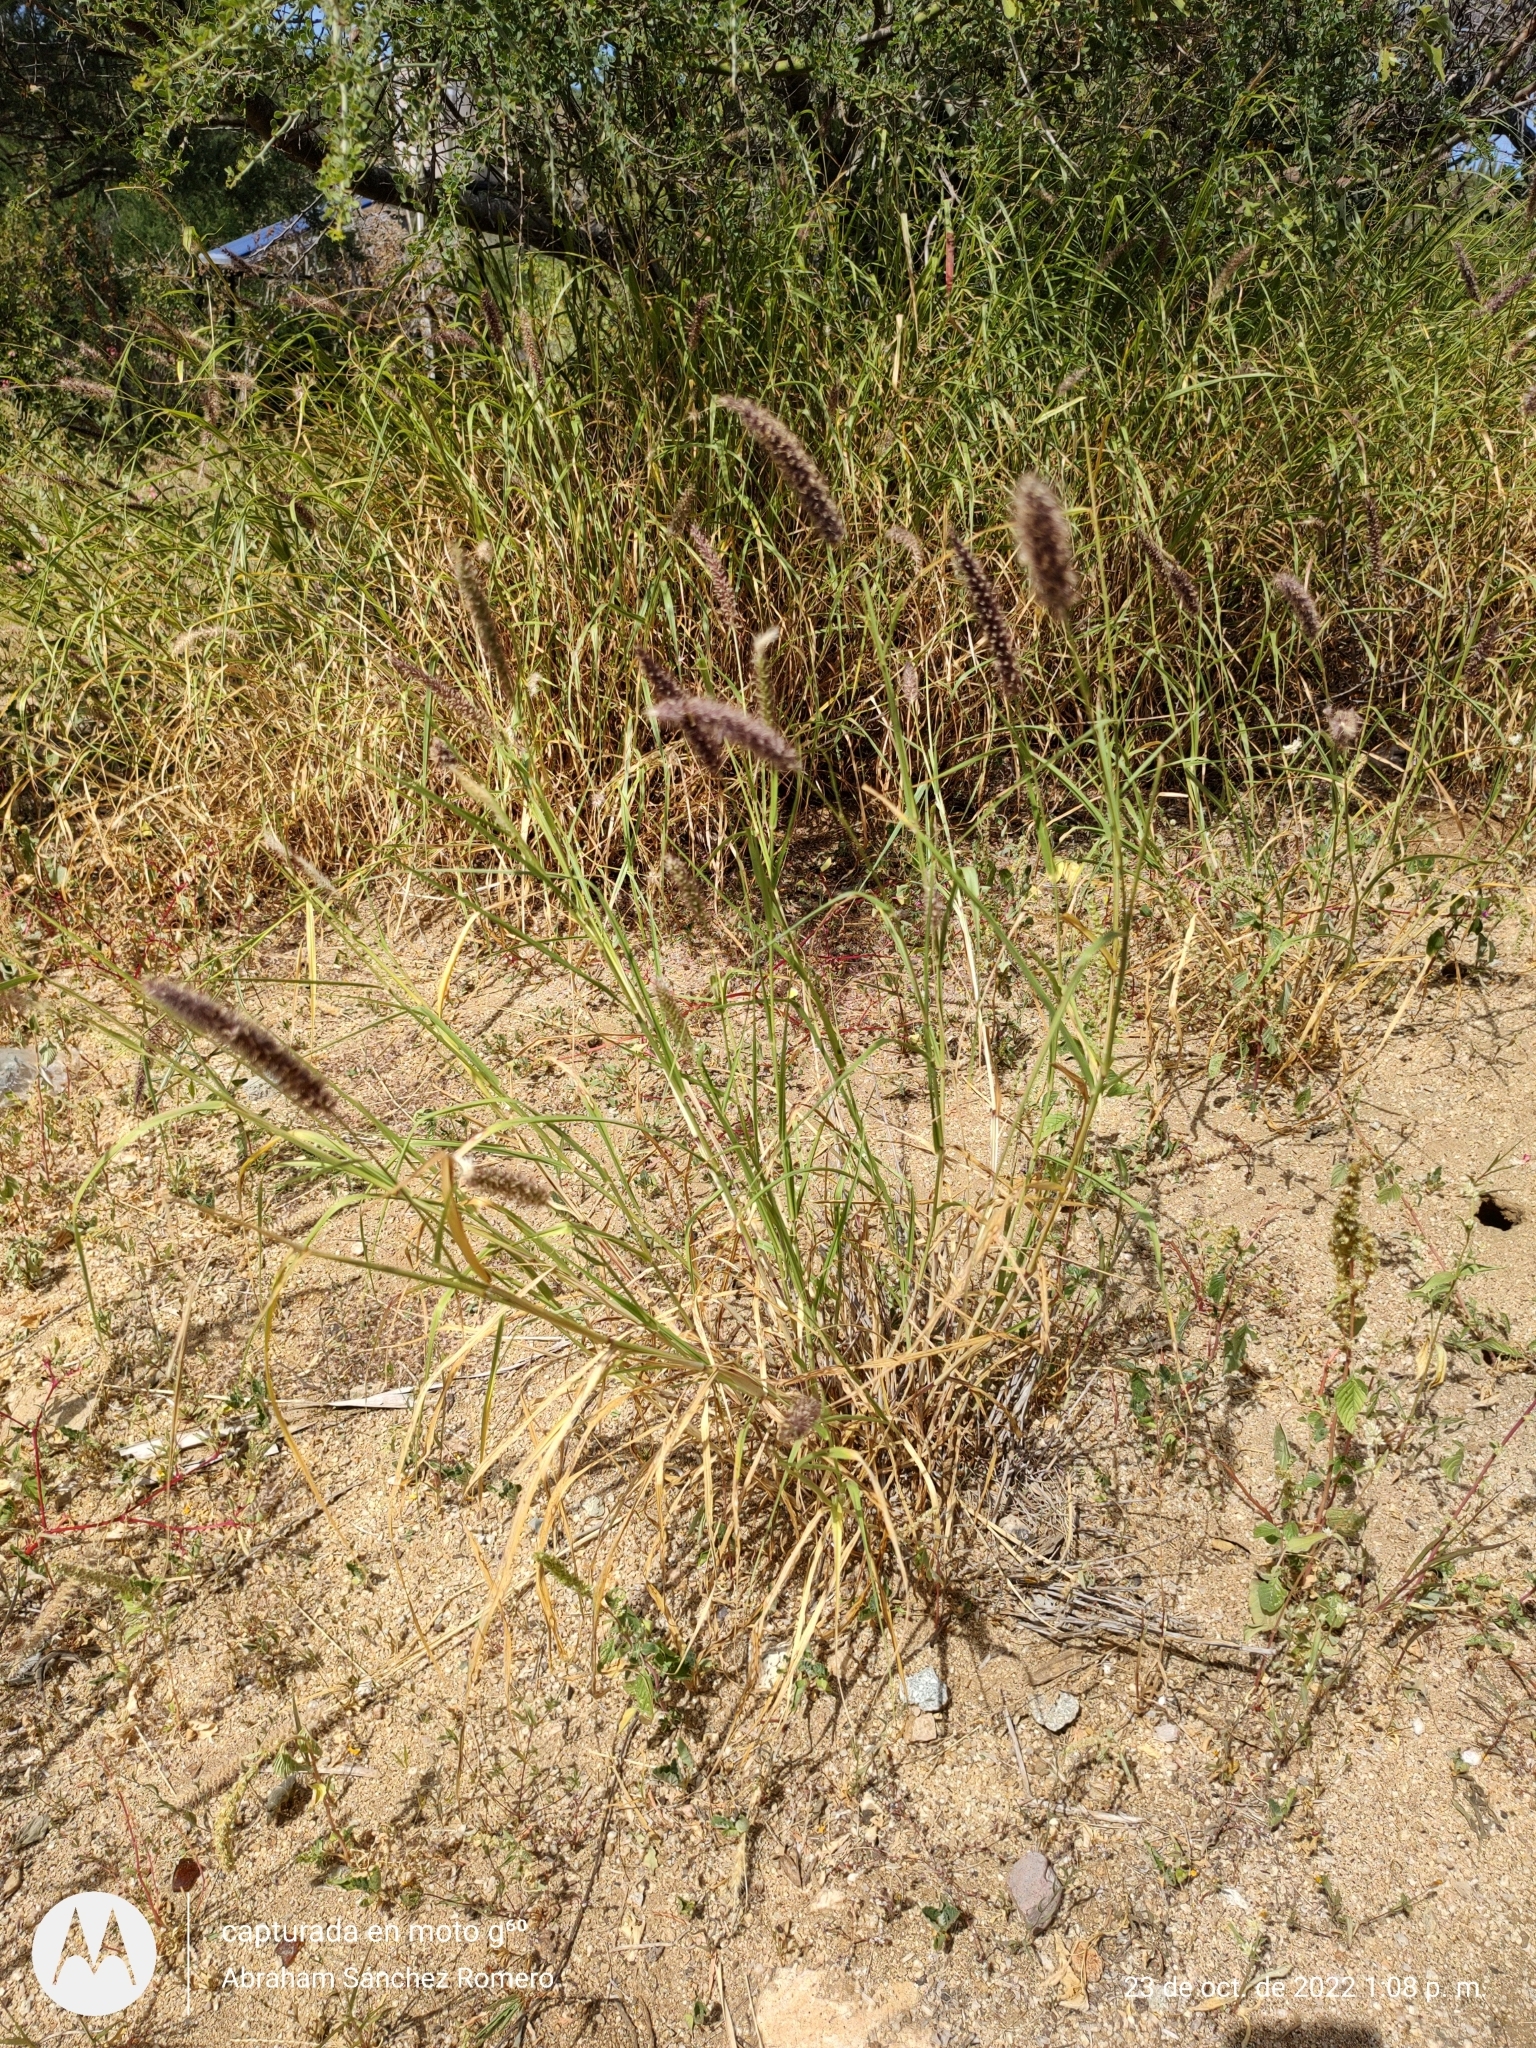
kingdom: Plantae
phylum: Tracheophyta
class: Liliopsida
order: Poales
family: Poaceae
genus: Cenchrus
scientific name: Cenchrus ciliaris
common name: Buffelgrass
